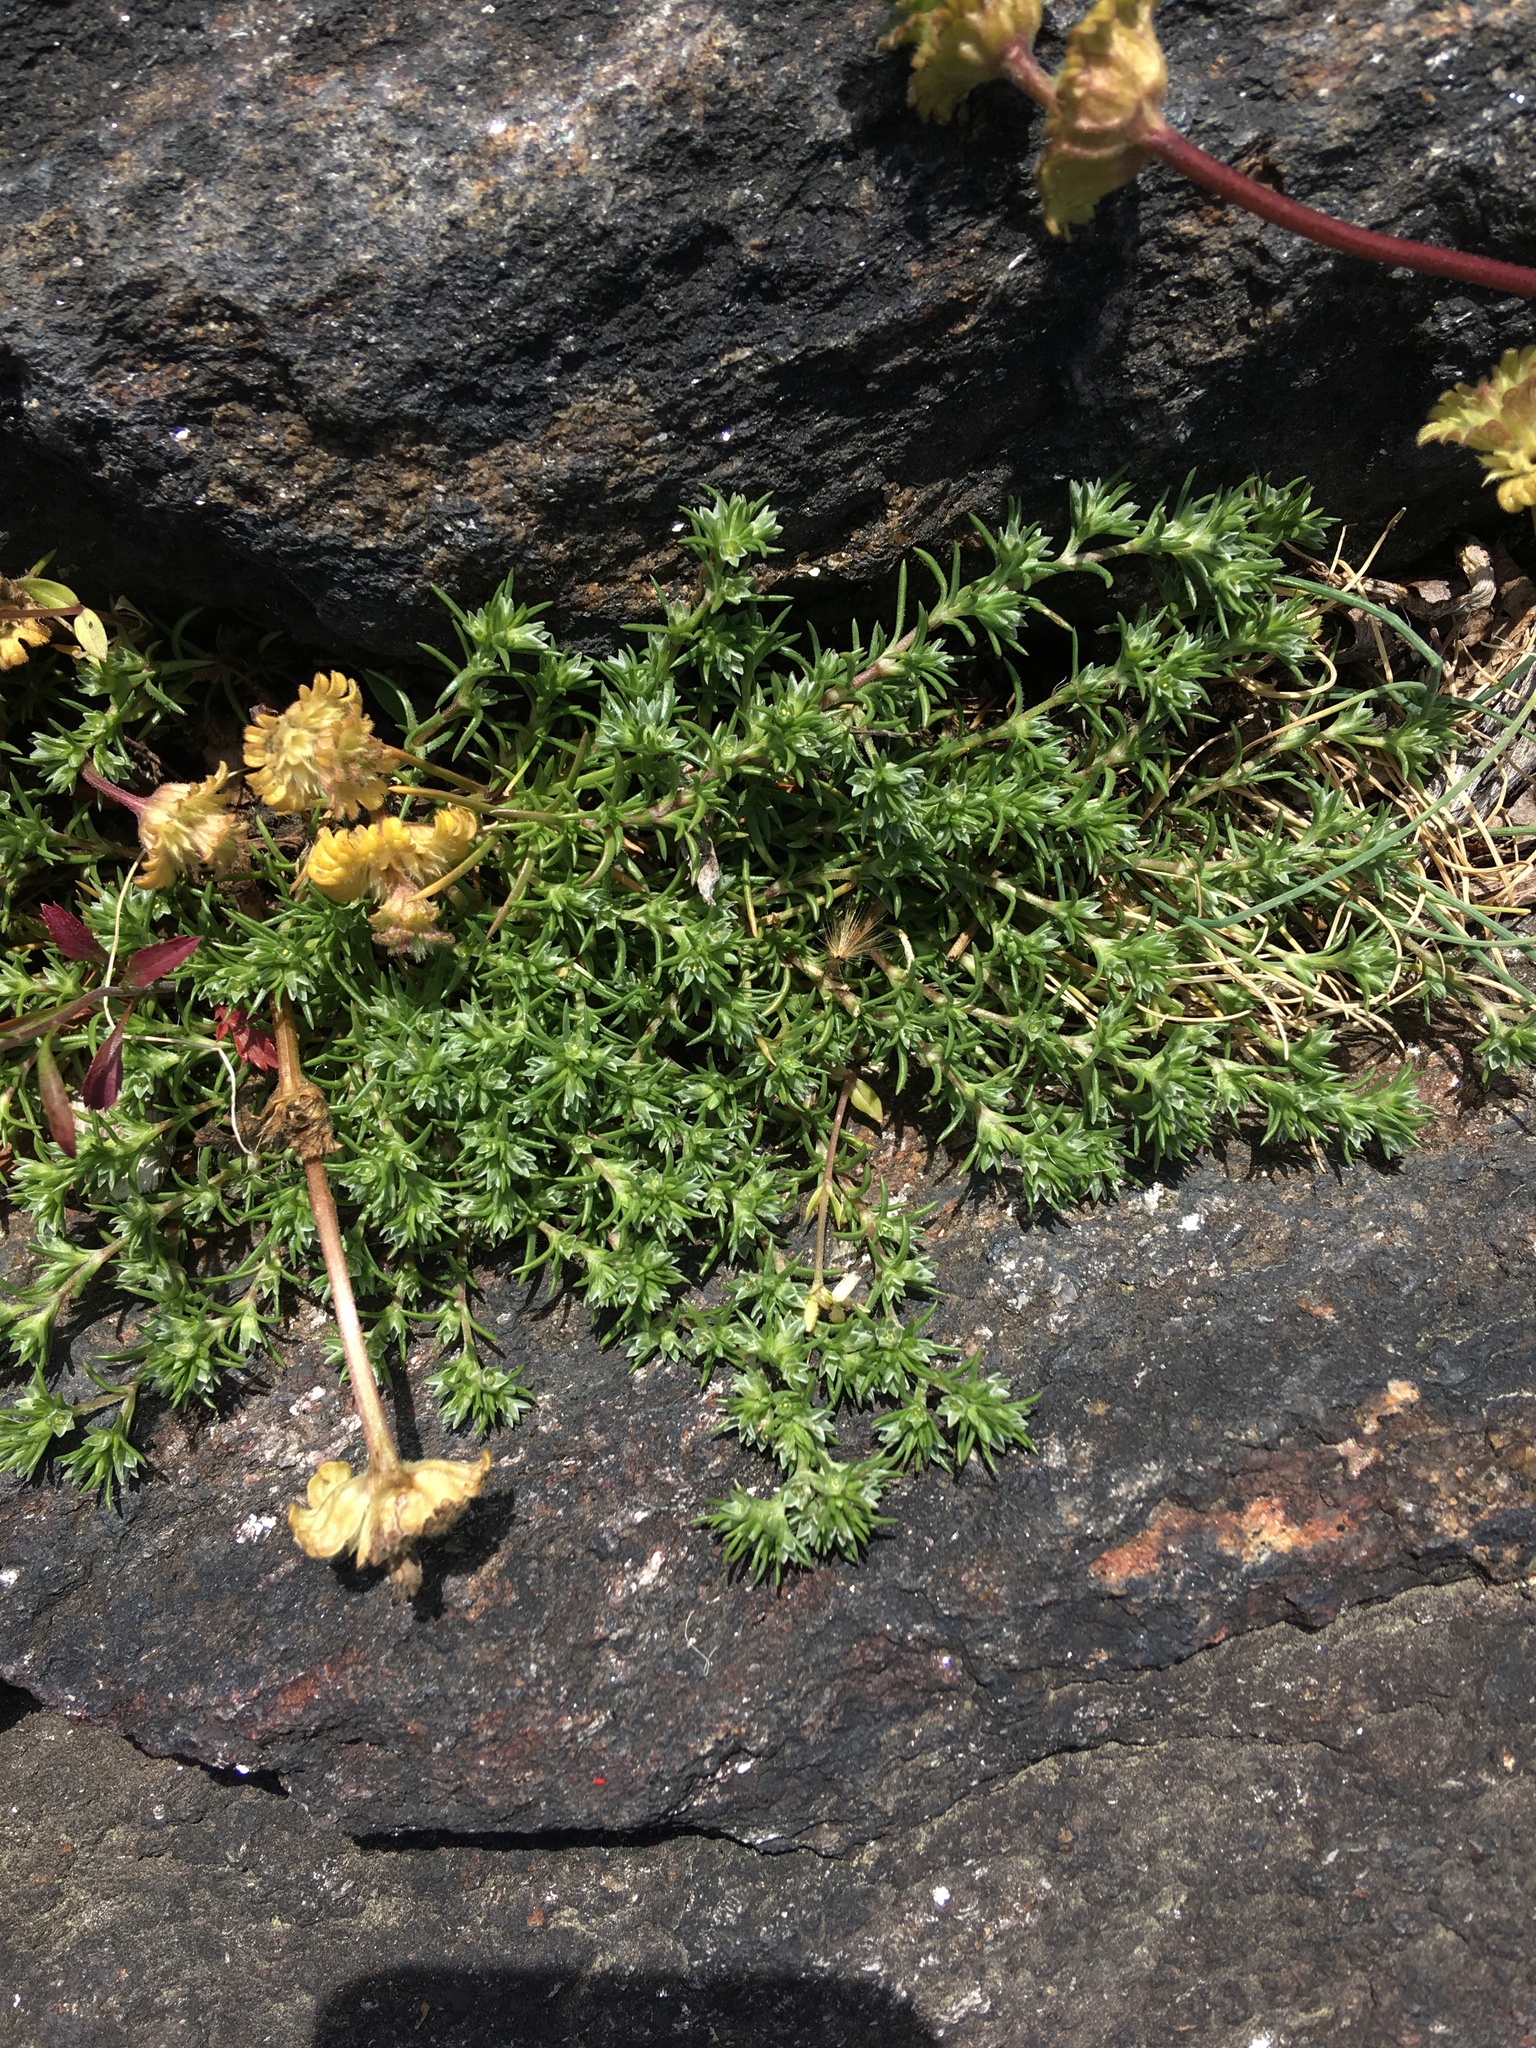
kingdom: Plantae
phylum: Tracheophyta
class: Magnoliopsida
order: Caryophyllales
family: Caryophyllaceae
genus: Scleranthus
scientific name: Scleranthus annuus
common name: Annual knawel
